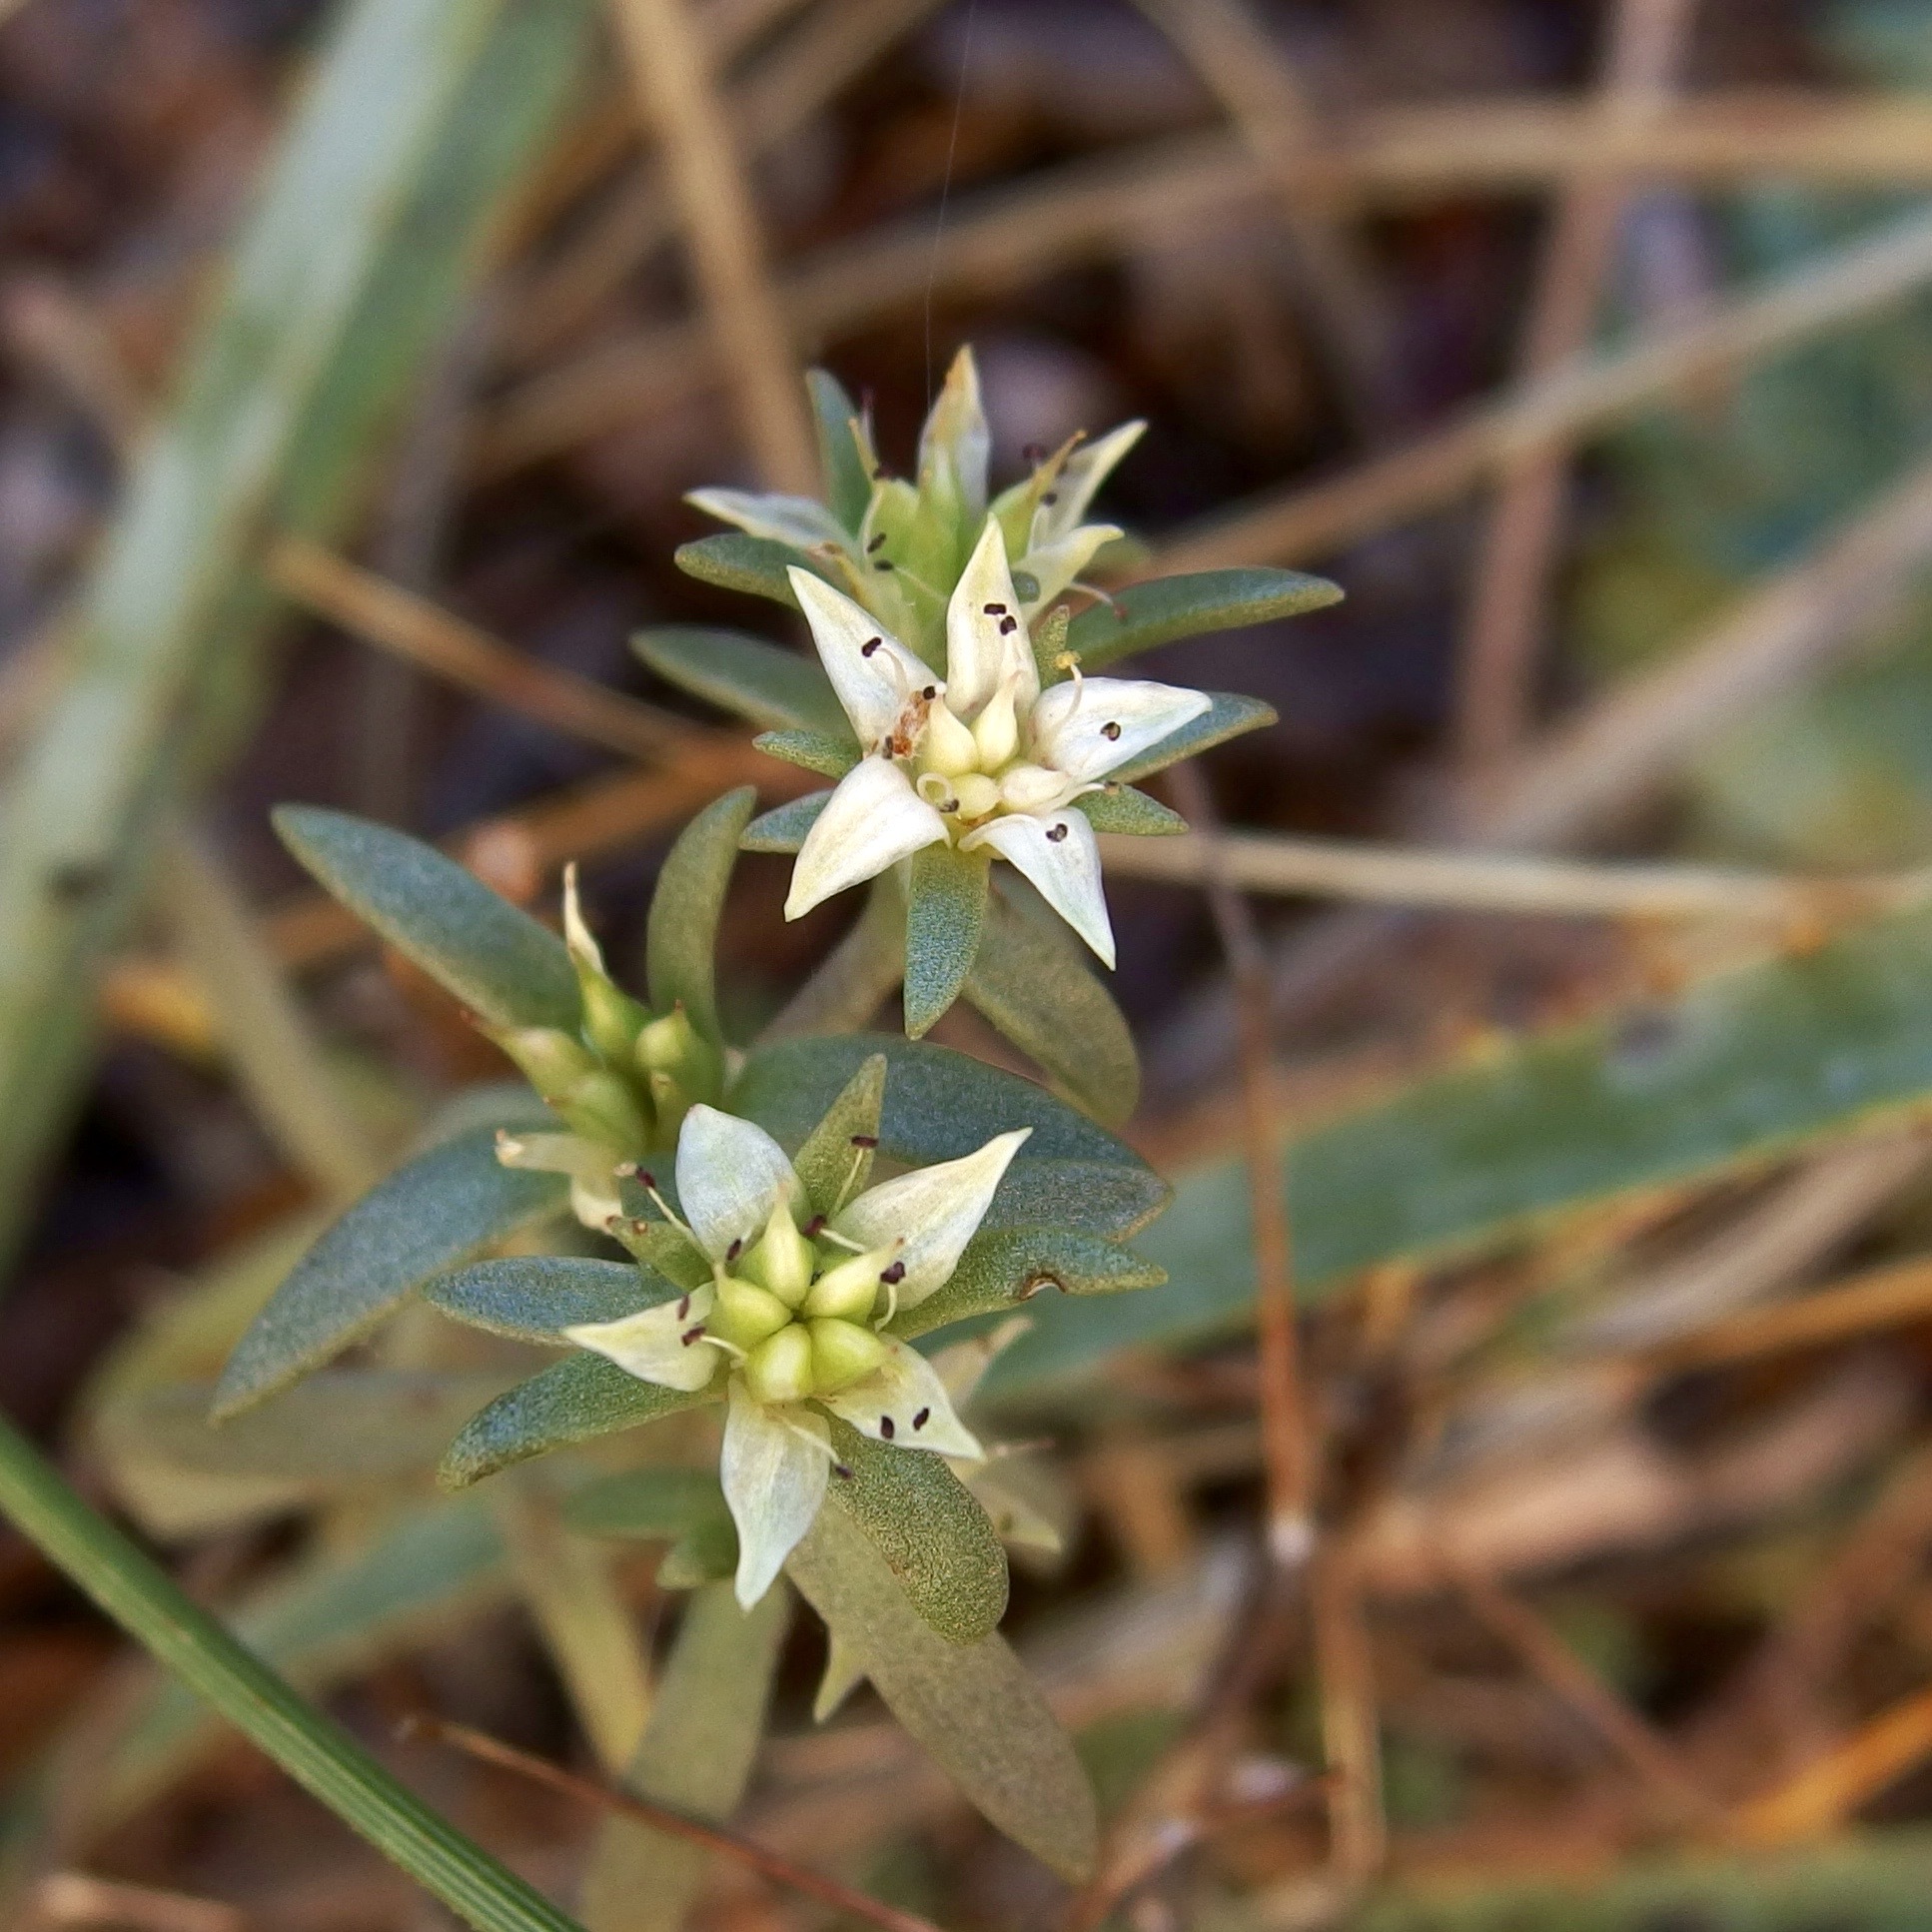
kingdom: Plantae
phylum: Tracheophyta
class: Magnoliopsida
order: Saxifragales
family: Crassulaceae
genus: Sedum
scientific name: Sedum cockerellii
